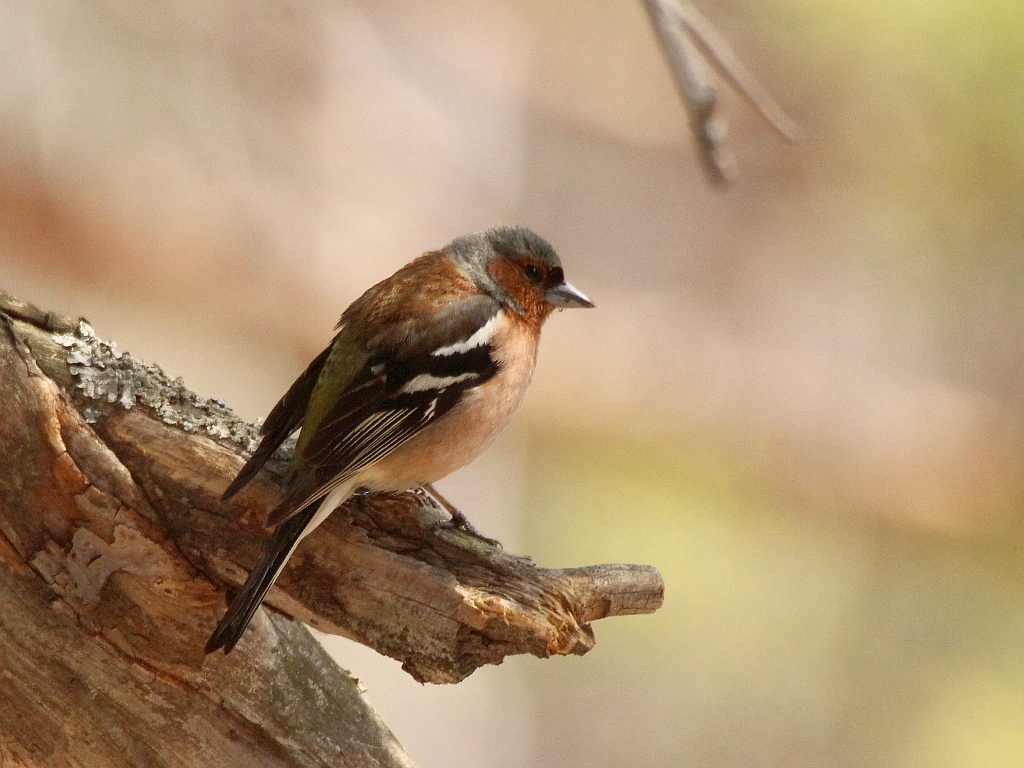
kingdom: Animalia
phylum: Chordata
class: Aves
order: Passeriformes
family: Fringillidae
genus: Fringilla
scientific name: Fringilla coelebs
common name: Common chaffinch
